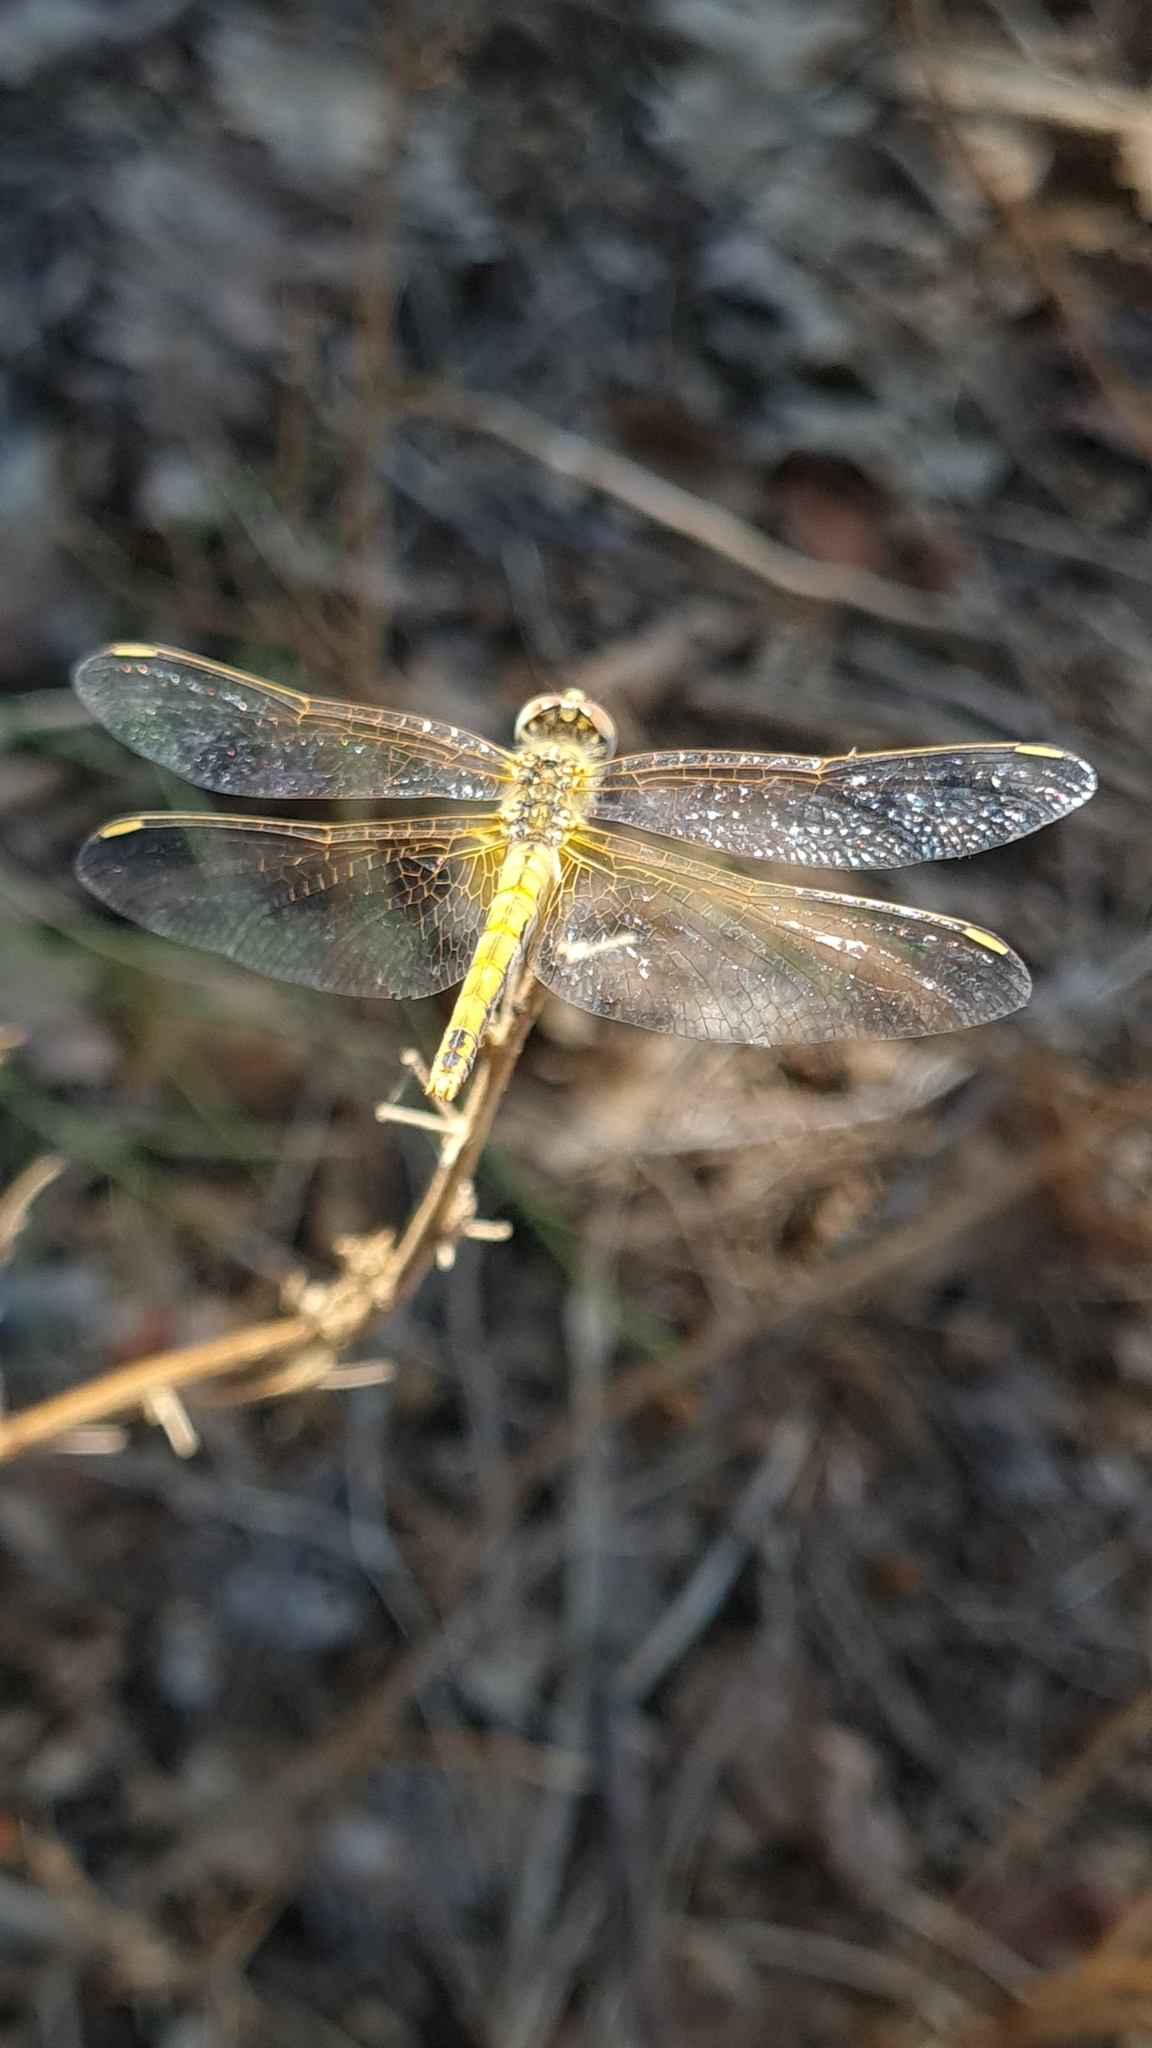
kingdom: Animalia
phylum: Arthropoda
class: Insecta
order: Odonata
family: Libellulidae
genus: Sympetrum
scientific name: Sympetrum fonscolombii
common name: Red-veined darter
